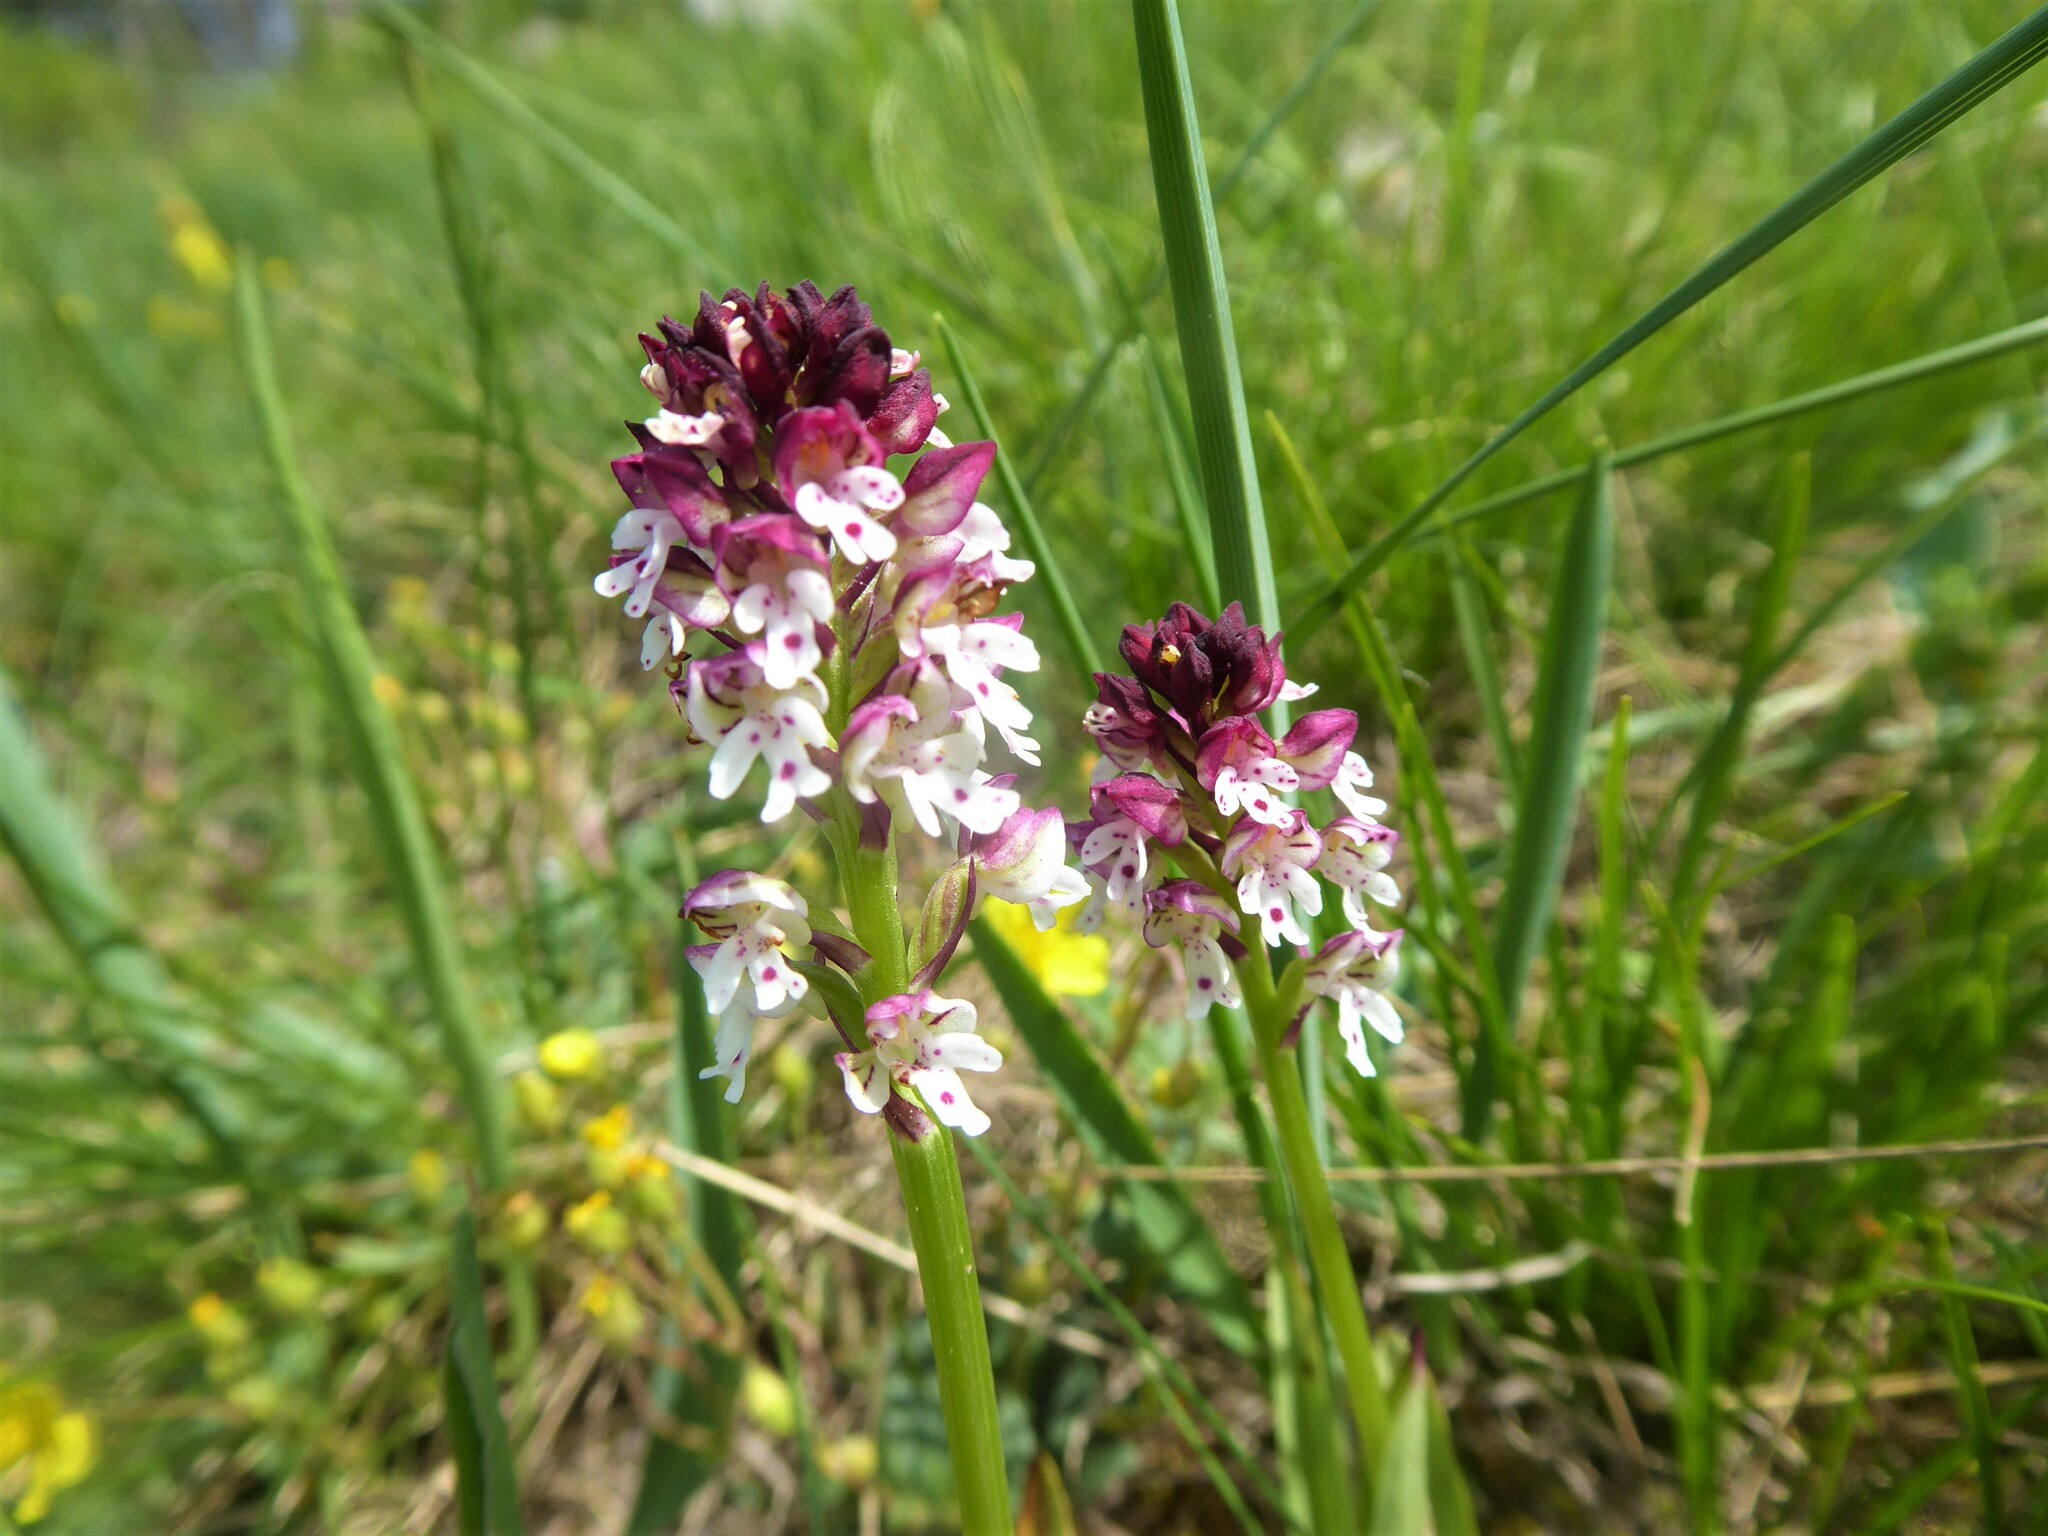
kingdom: Plantae
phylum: Tracheophyta
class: Liliopsida
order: Asparagales
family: Orchidaceae
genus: Neotinea
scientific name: Neotinea ustulata
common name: Burnt orchid
